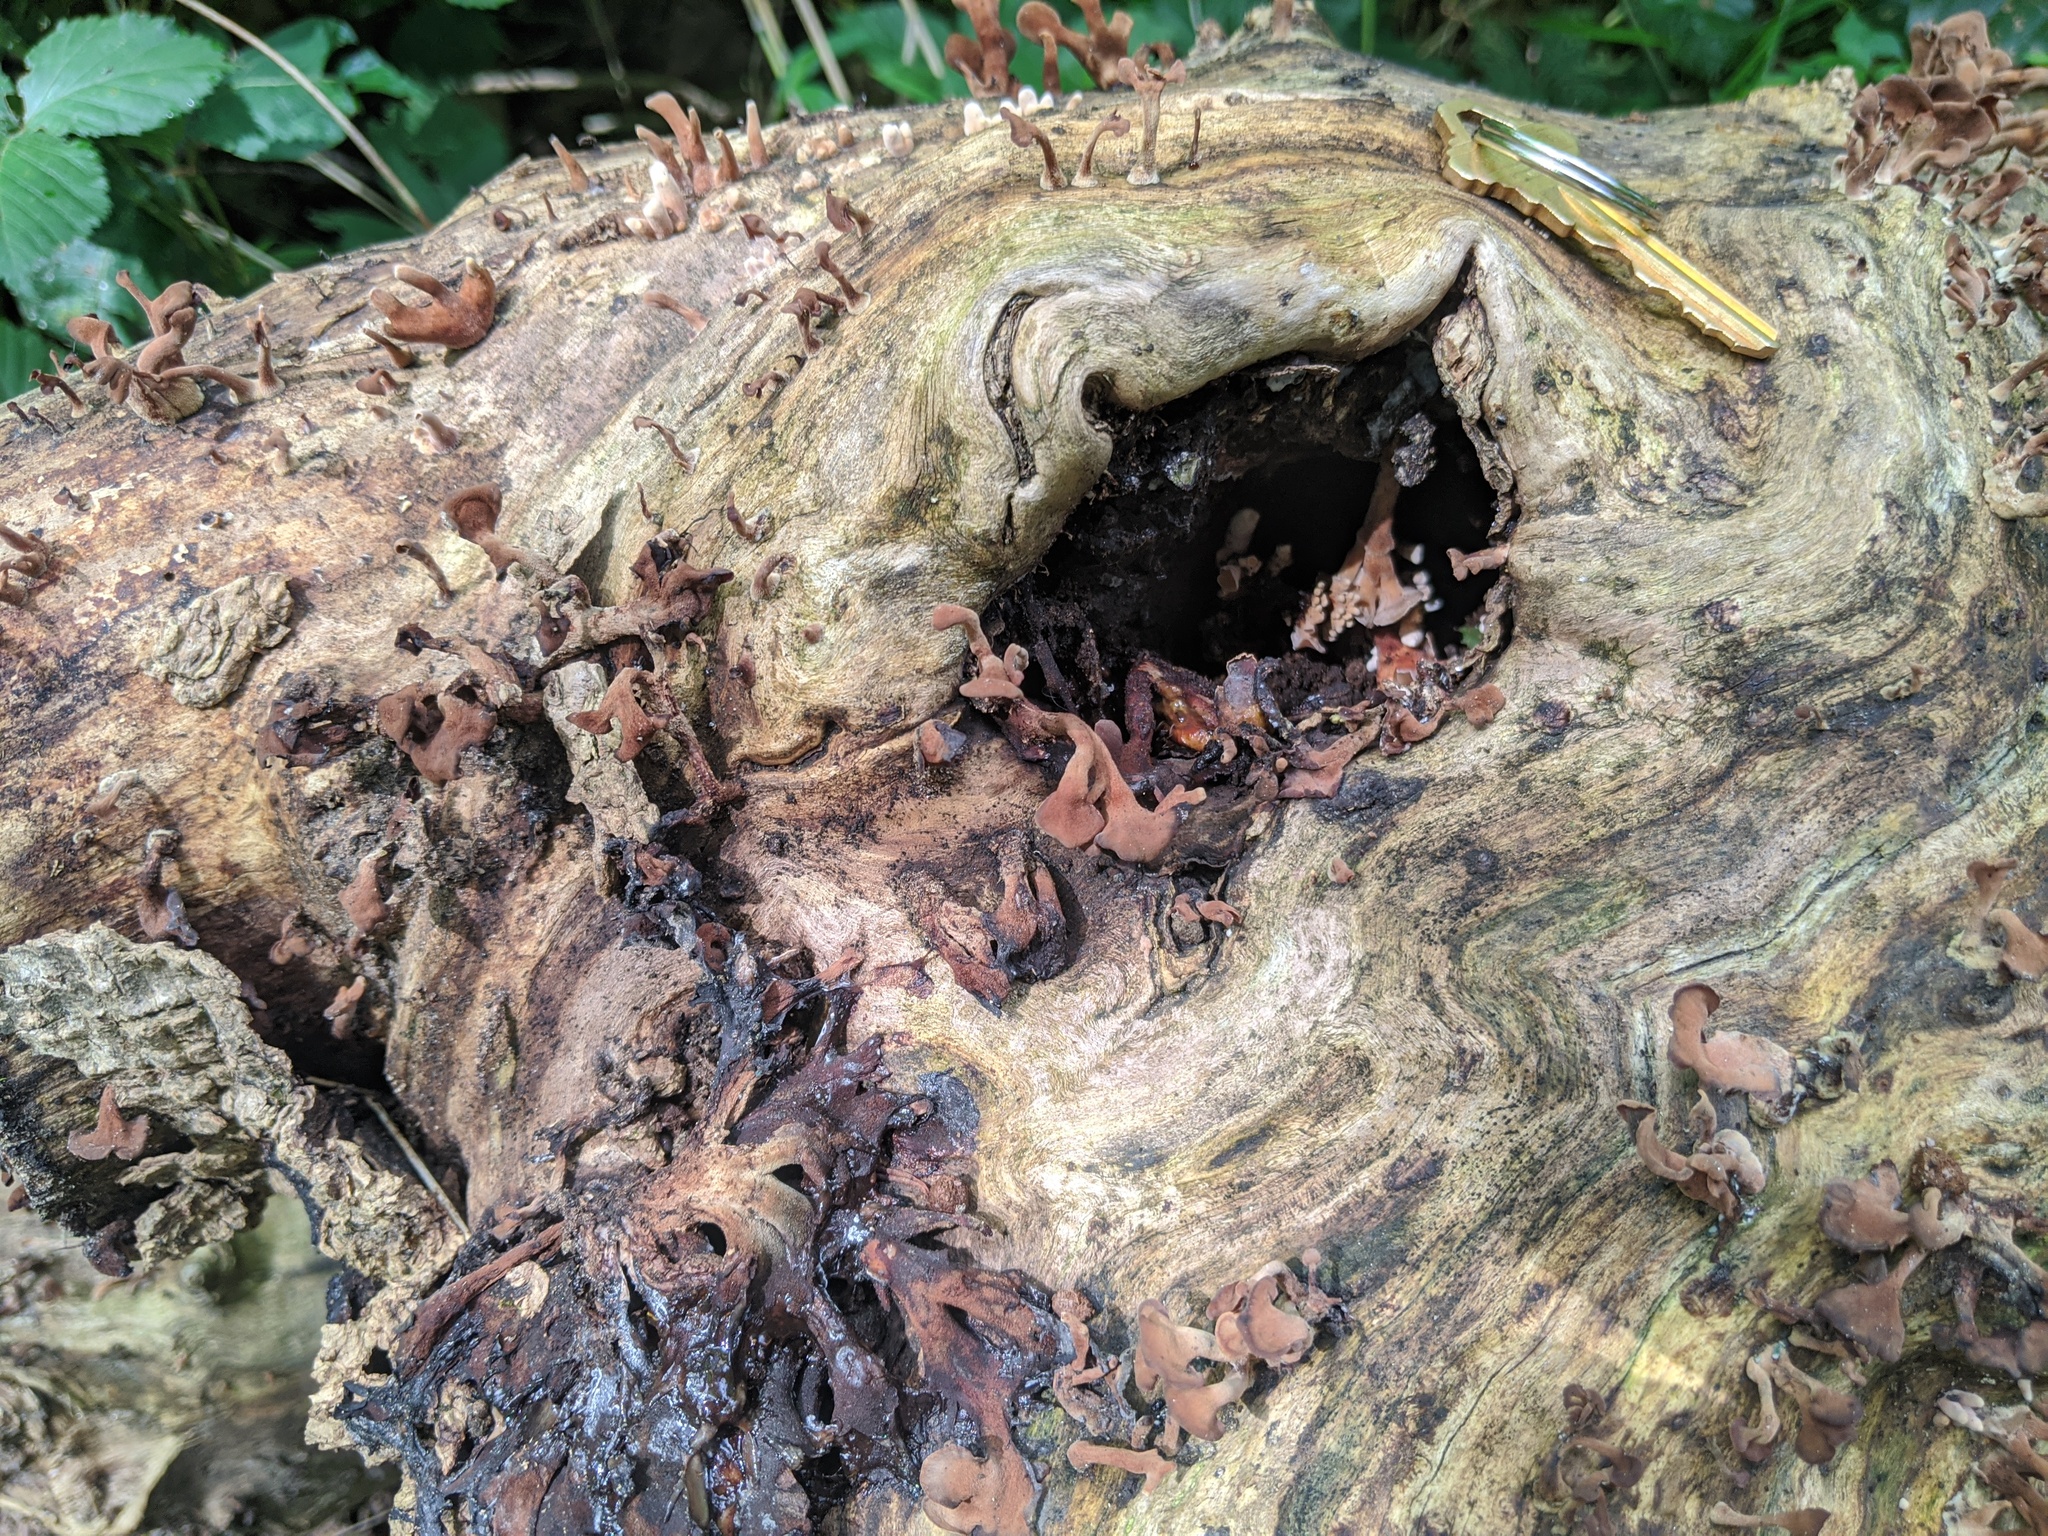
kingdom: Fungi
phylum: Basidiomycota
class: Dacrymycetes
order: Dacrymycetales
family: Dacrymycetaceae
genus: Dacryopinax
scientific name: Dacryopinax elegans
